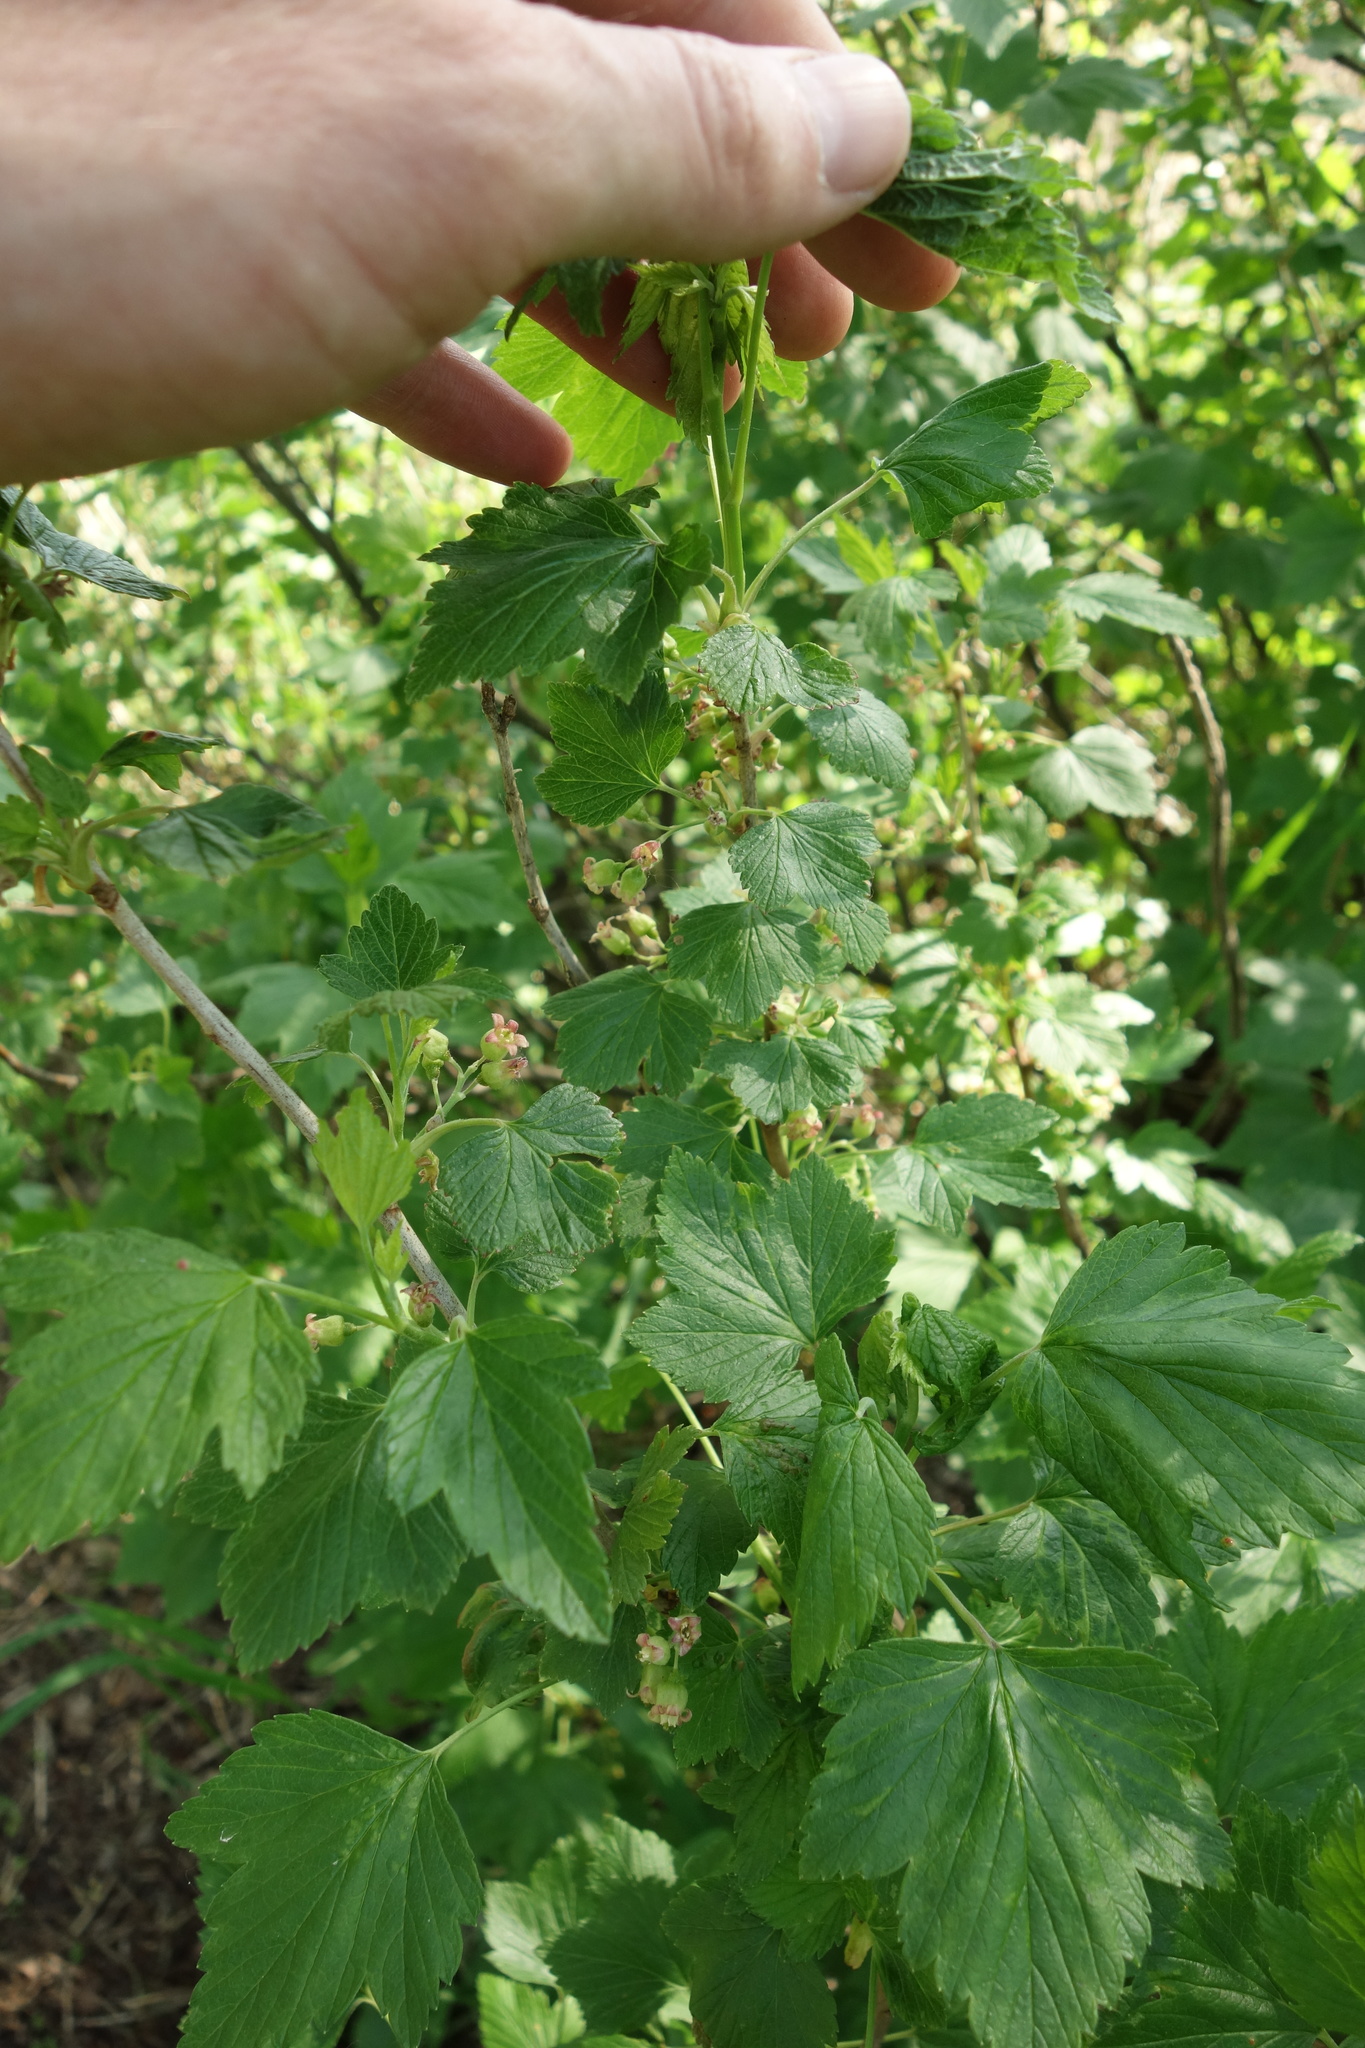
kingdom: Plantae
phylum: Tracheophyta
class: Magnoliopsida
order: Saxifragales
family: Grossulariaceae
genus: Ribes
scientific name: Ribes nigrum
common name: Black currant
